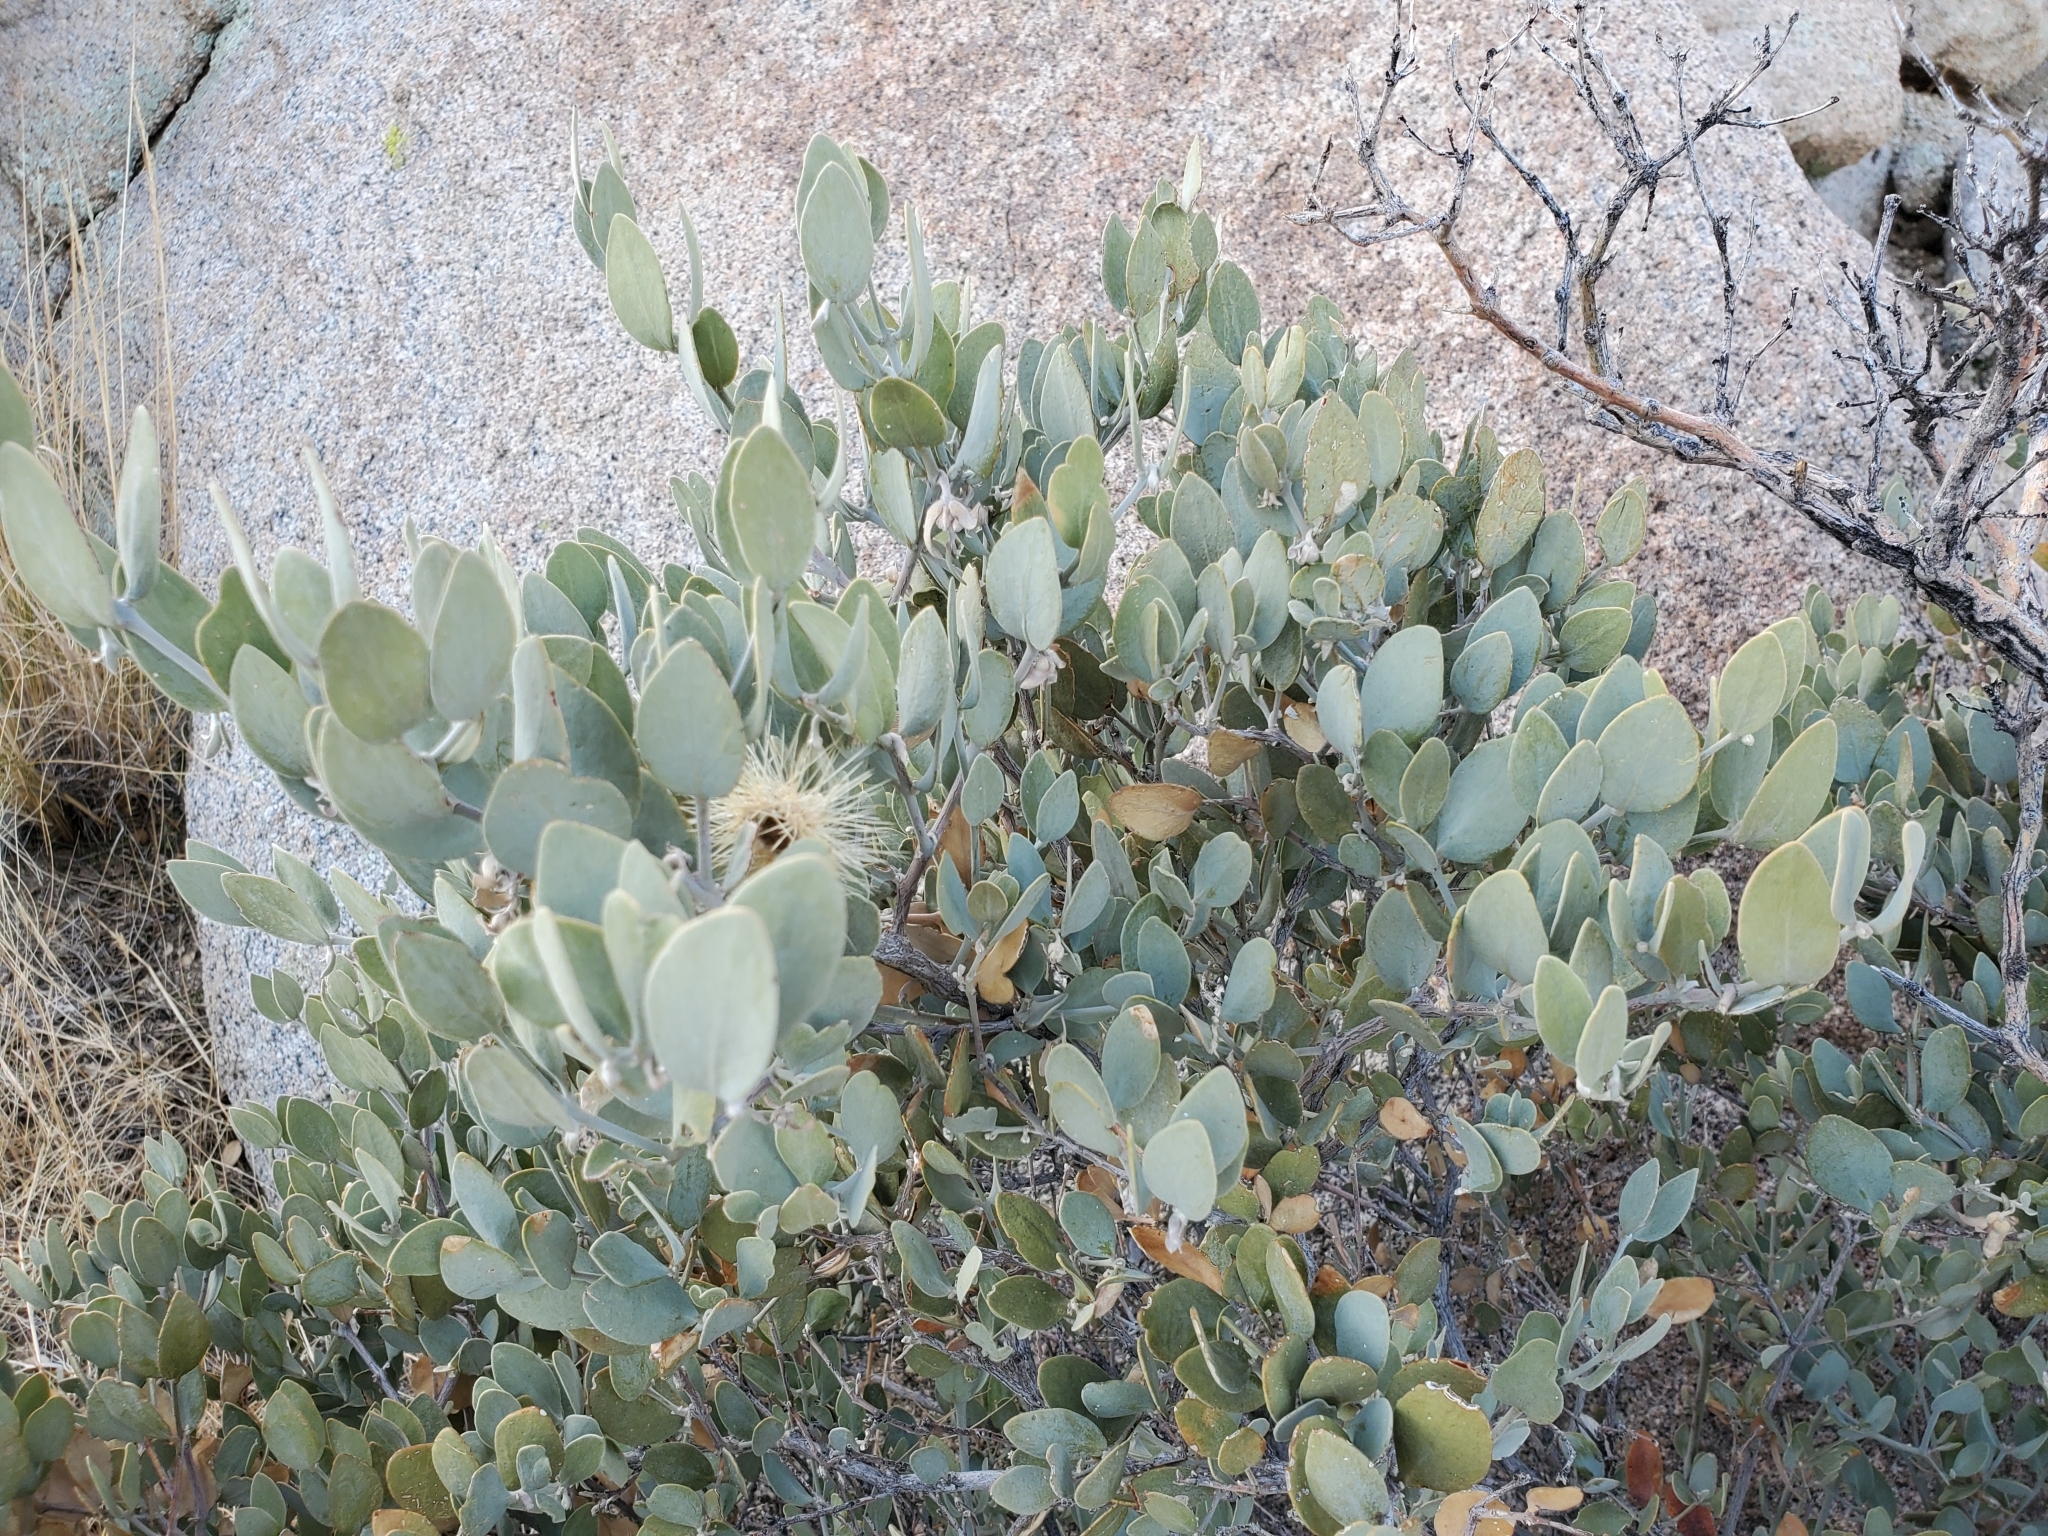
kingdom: Plantae
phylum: Tracheophyta
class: Magnoliopsida
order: Caryophyllales
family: Simmondsiaceae
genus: Simmondsia
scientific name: Simmondsia chinensis
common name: Jojoba
